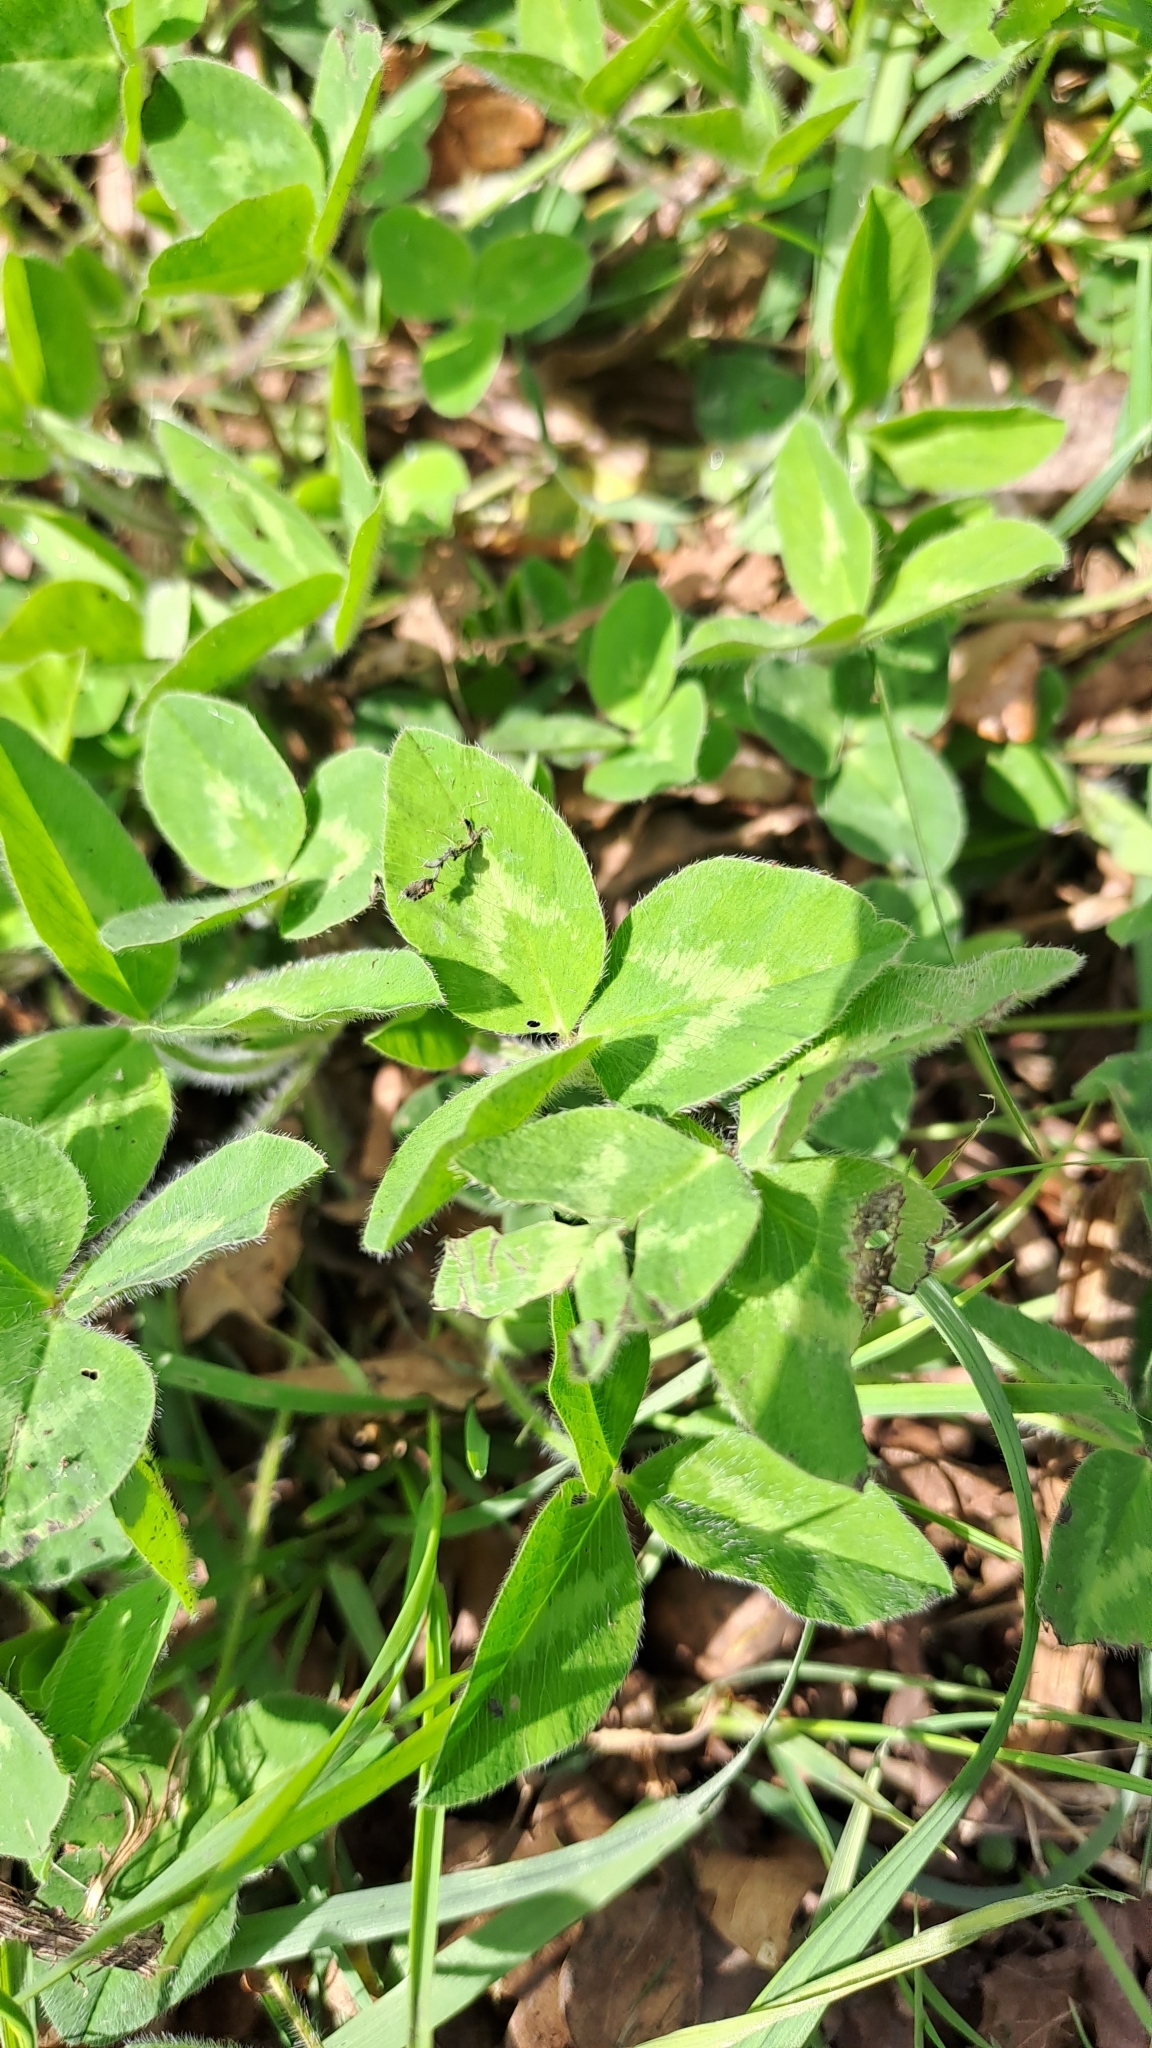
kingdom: Plantae
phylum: Tracheophyta
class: Magnoliopsida
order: Fabales
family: Fabaceae
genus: Trifolium
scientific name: Trifolium pratense
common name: Red clover
